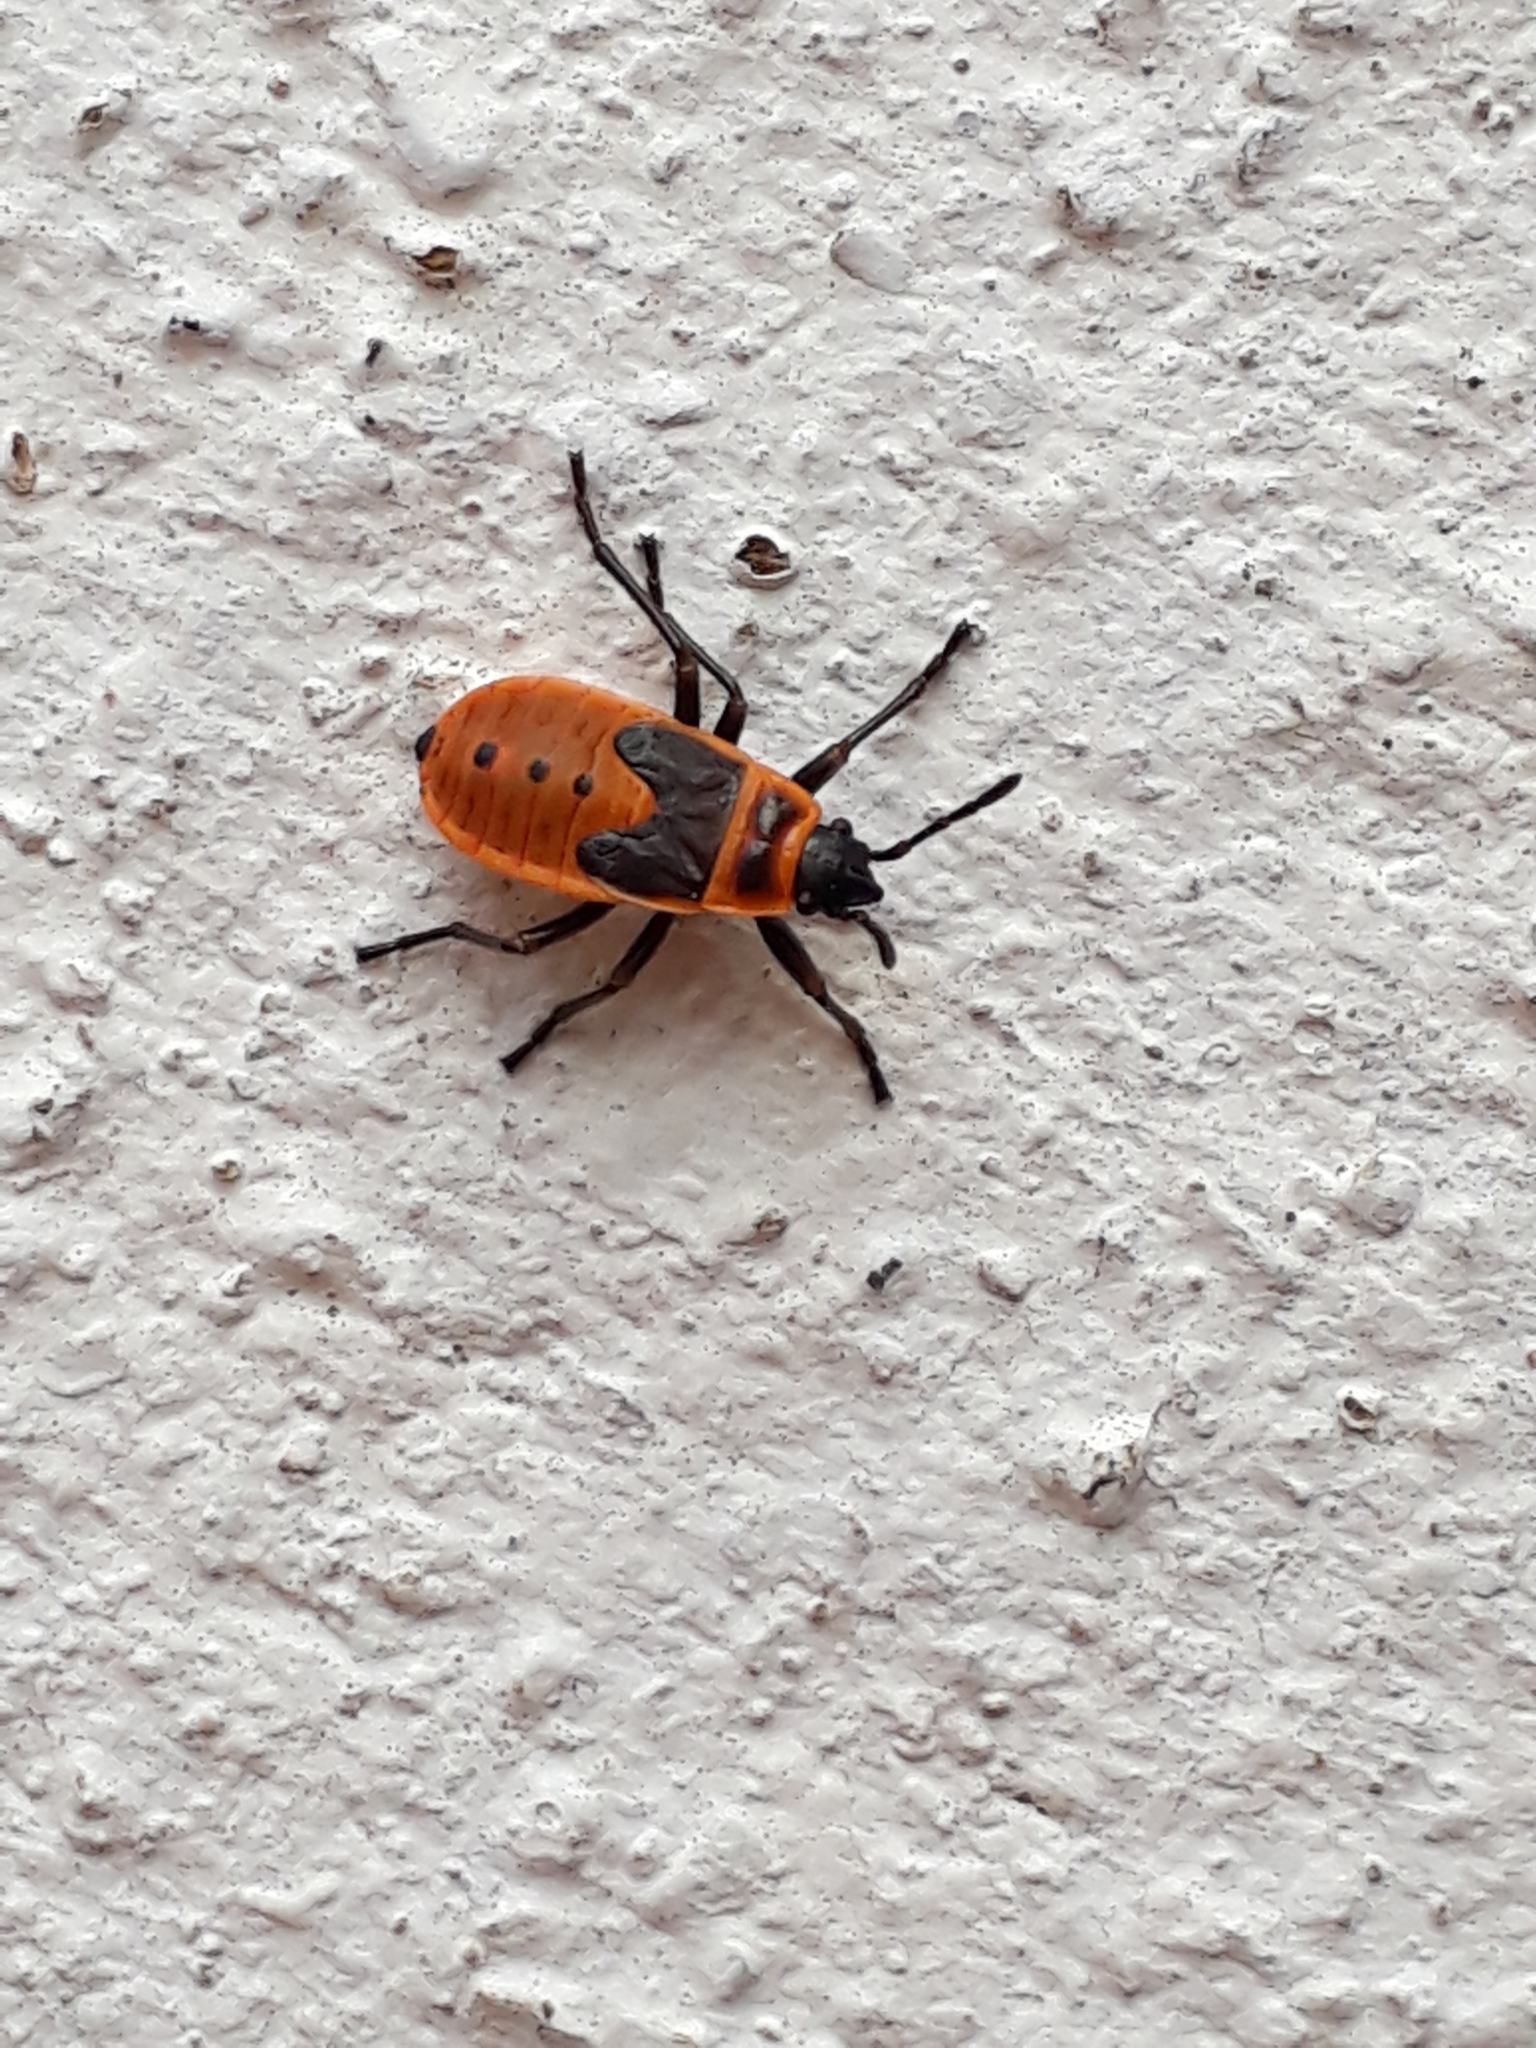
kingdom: Animalia
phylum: Arthropoda
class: Insecta
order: Hemiptera
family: Pyrrhocoridae
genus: Pyrrhocoris
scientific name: Pyrrhocoris apterus
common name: Firebug
